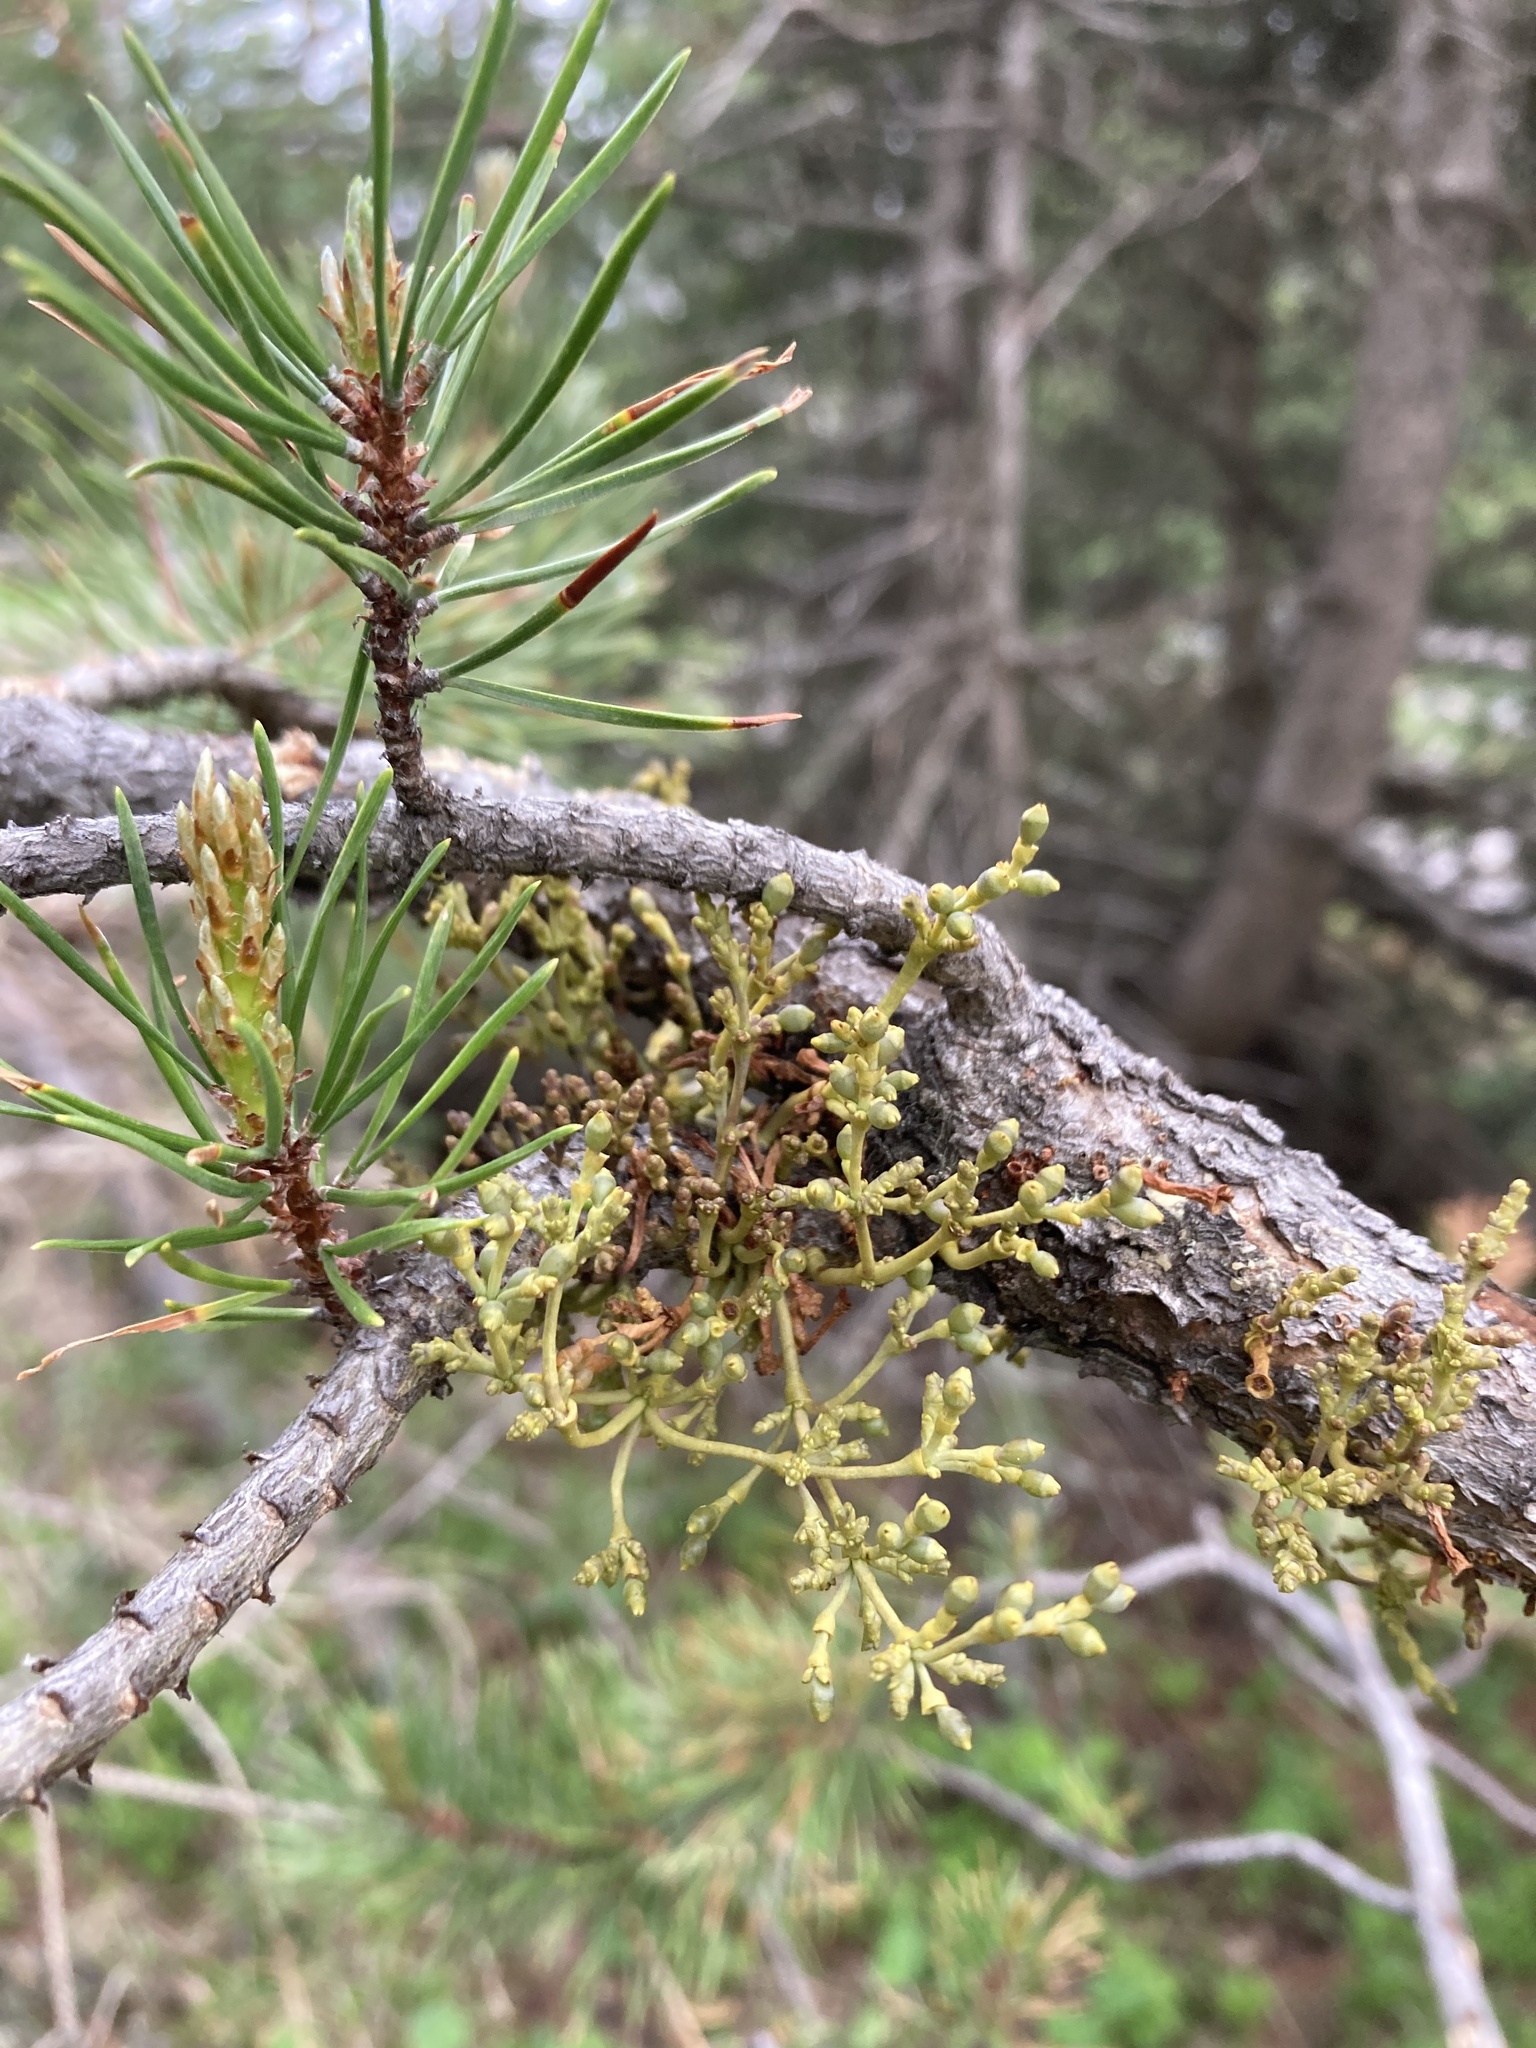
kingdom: Plantae
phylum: Tracheophyta
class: Magnoliopsida
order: Santalales
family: Viscaceae
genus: Arceuthobium
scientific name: Arceuthobium americanum
